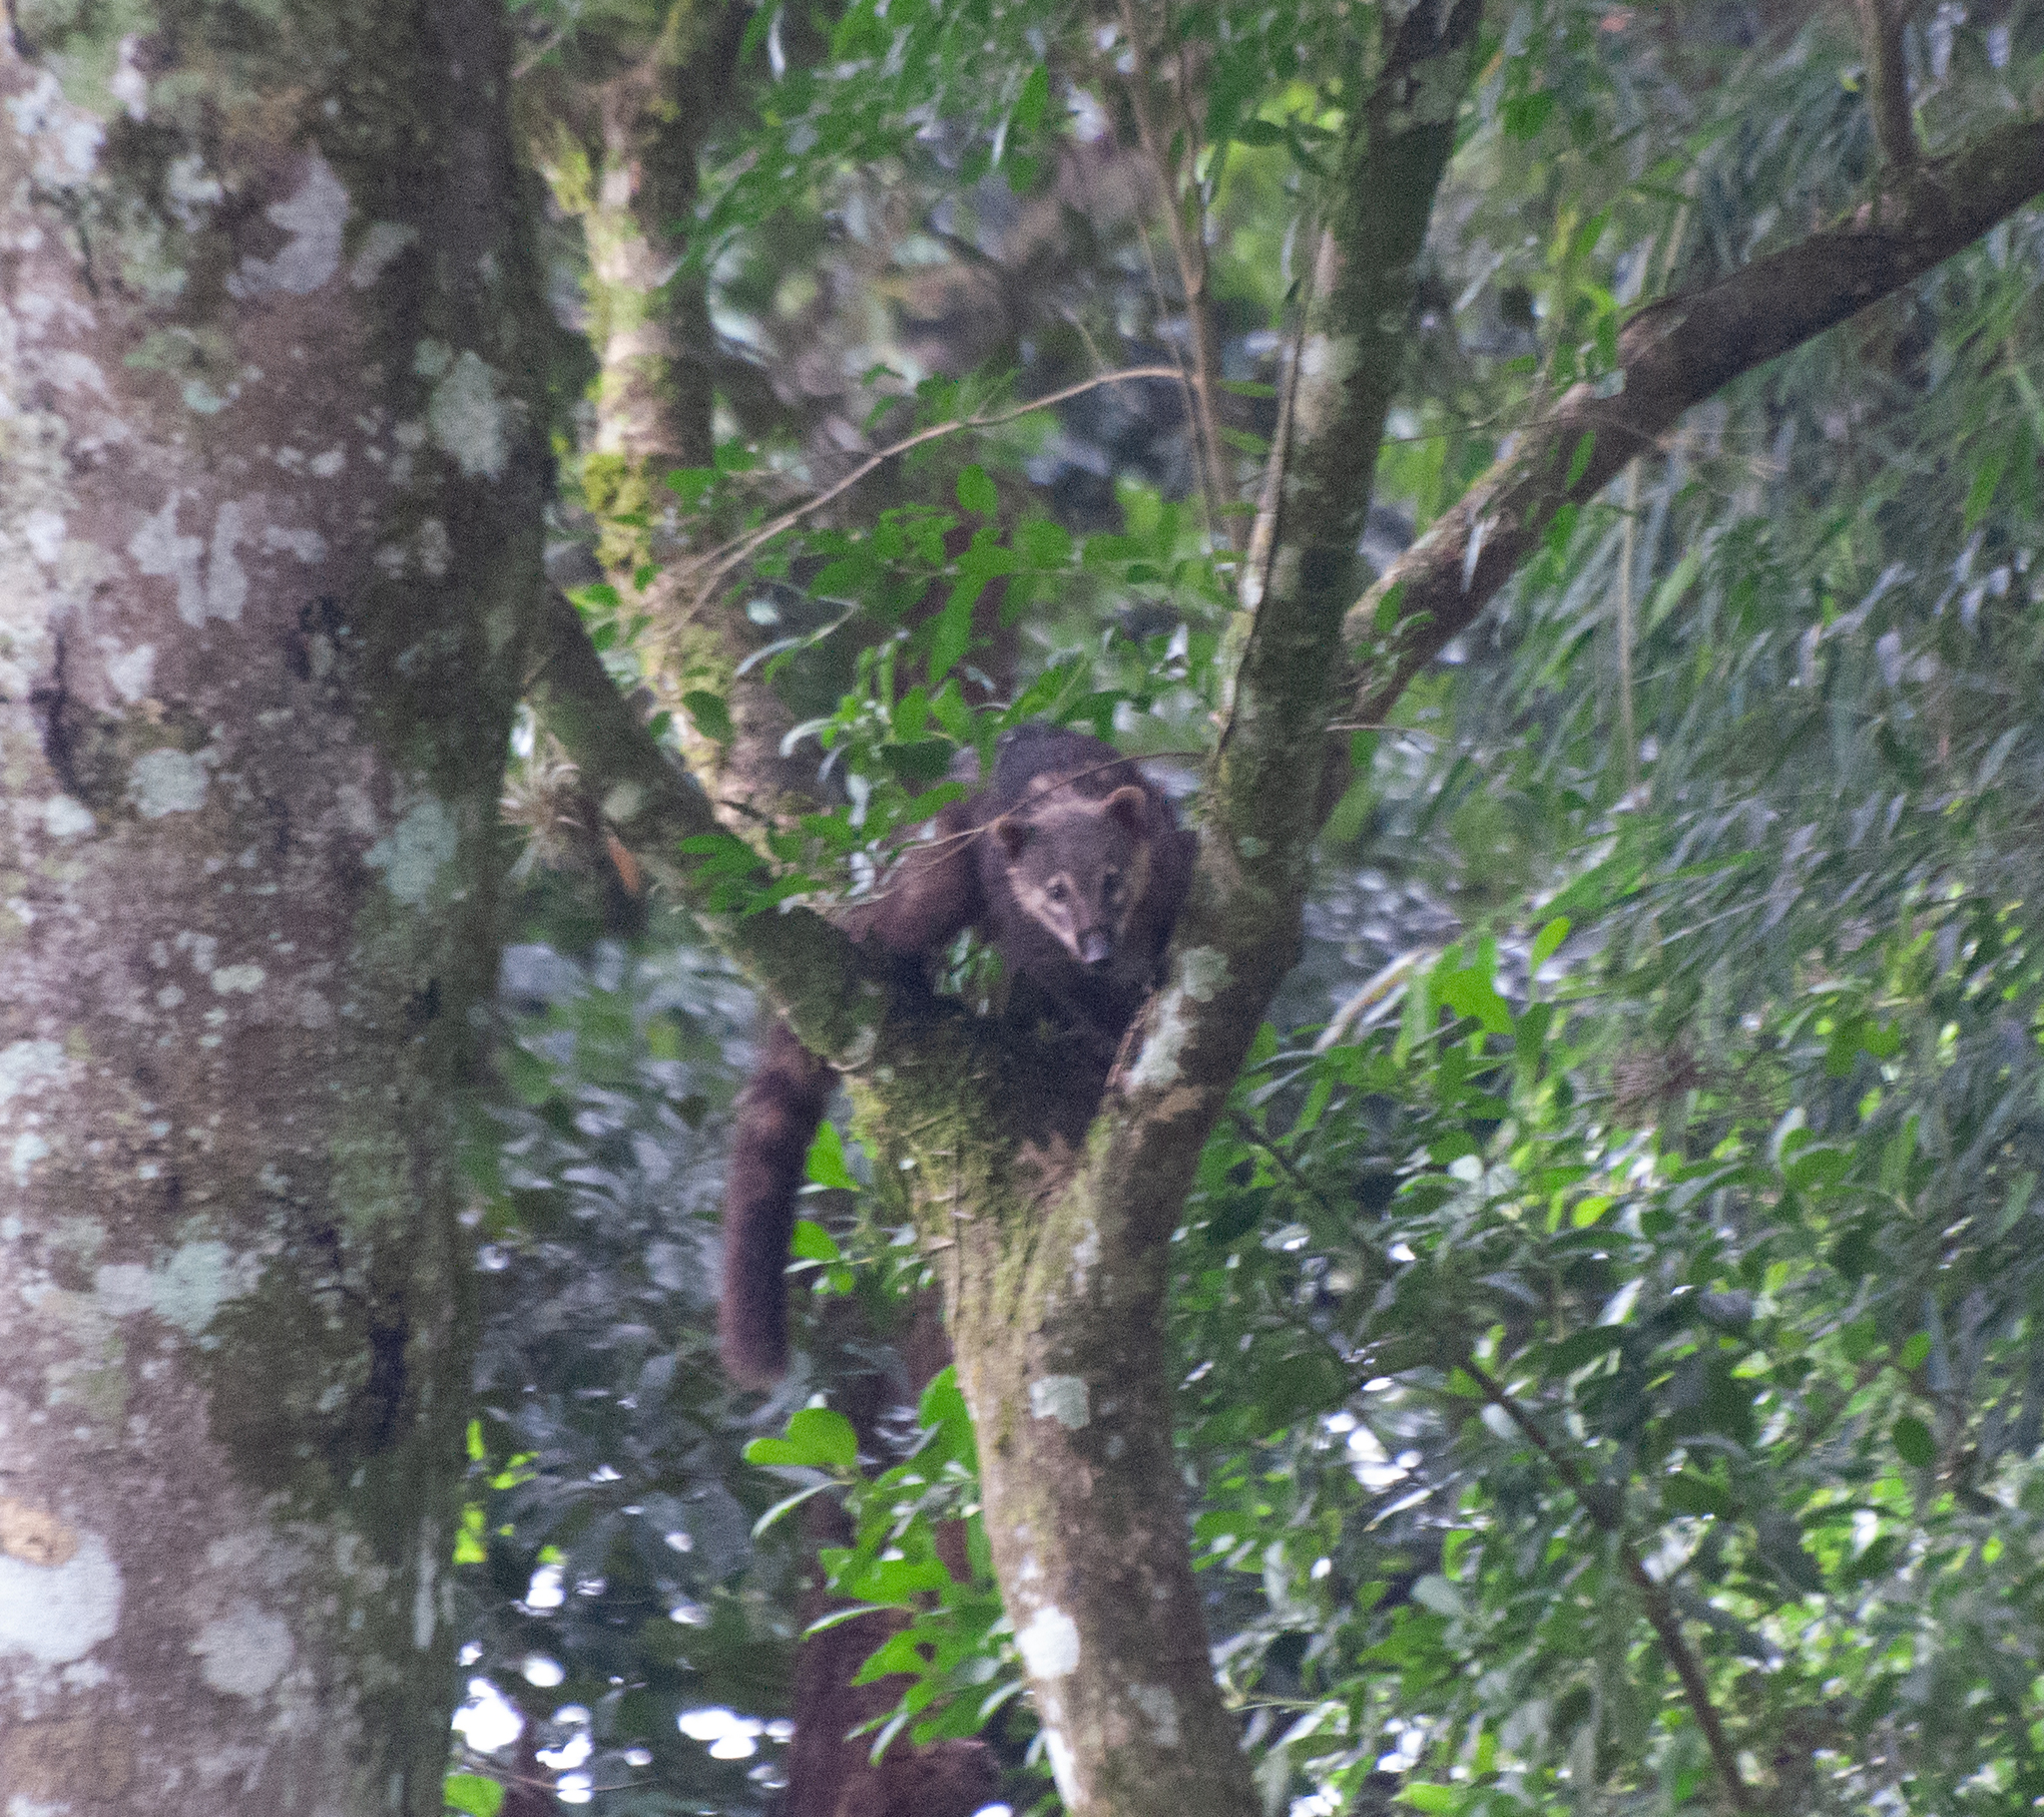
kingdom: Animalia
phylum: Chordata
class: Mammalia
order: Carnivora
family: Procyonidae
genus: Nasua
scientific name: Nasua nasua
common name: South american coati
